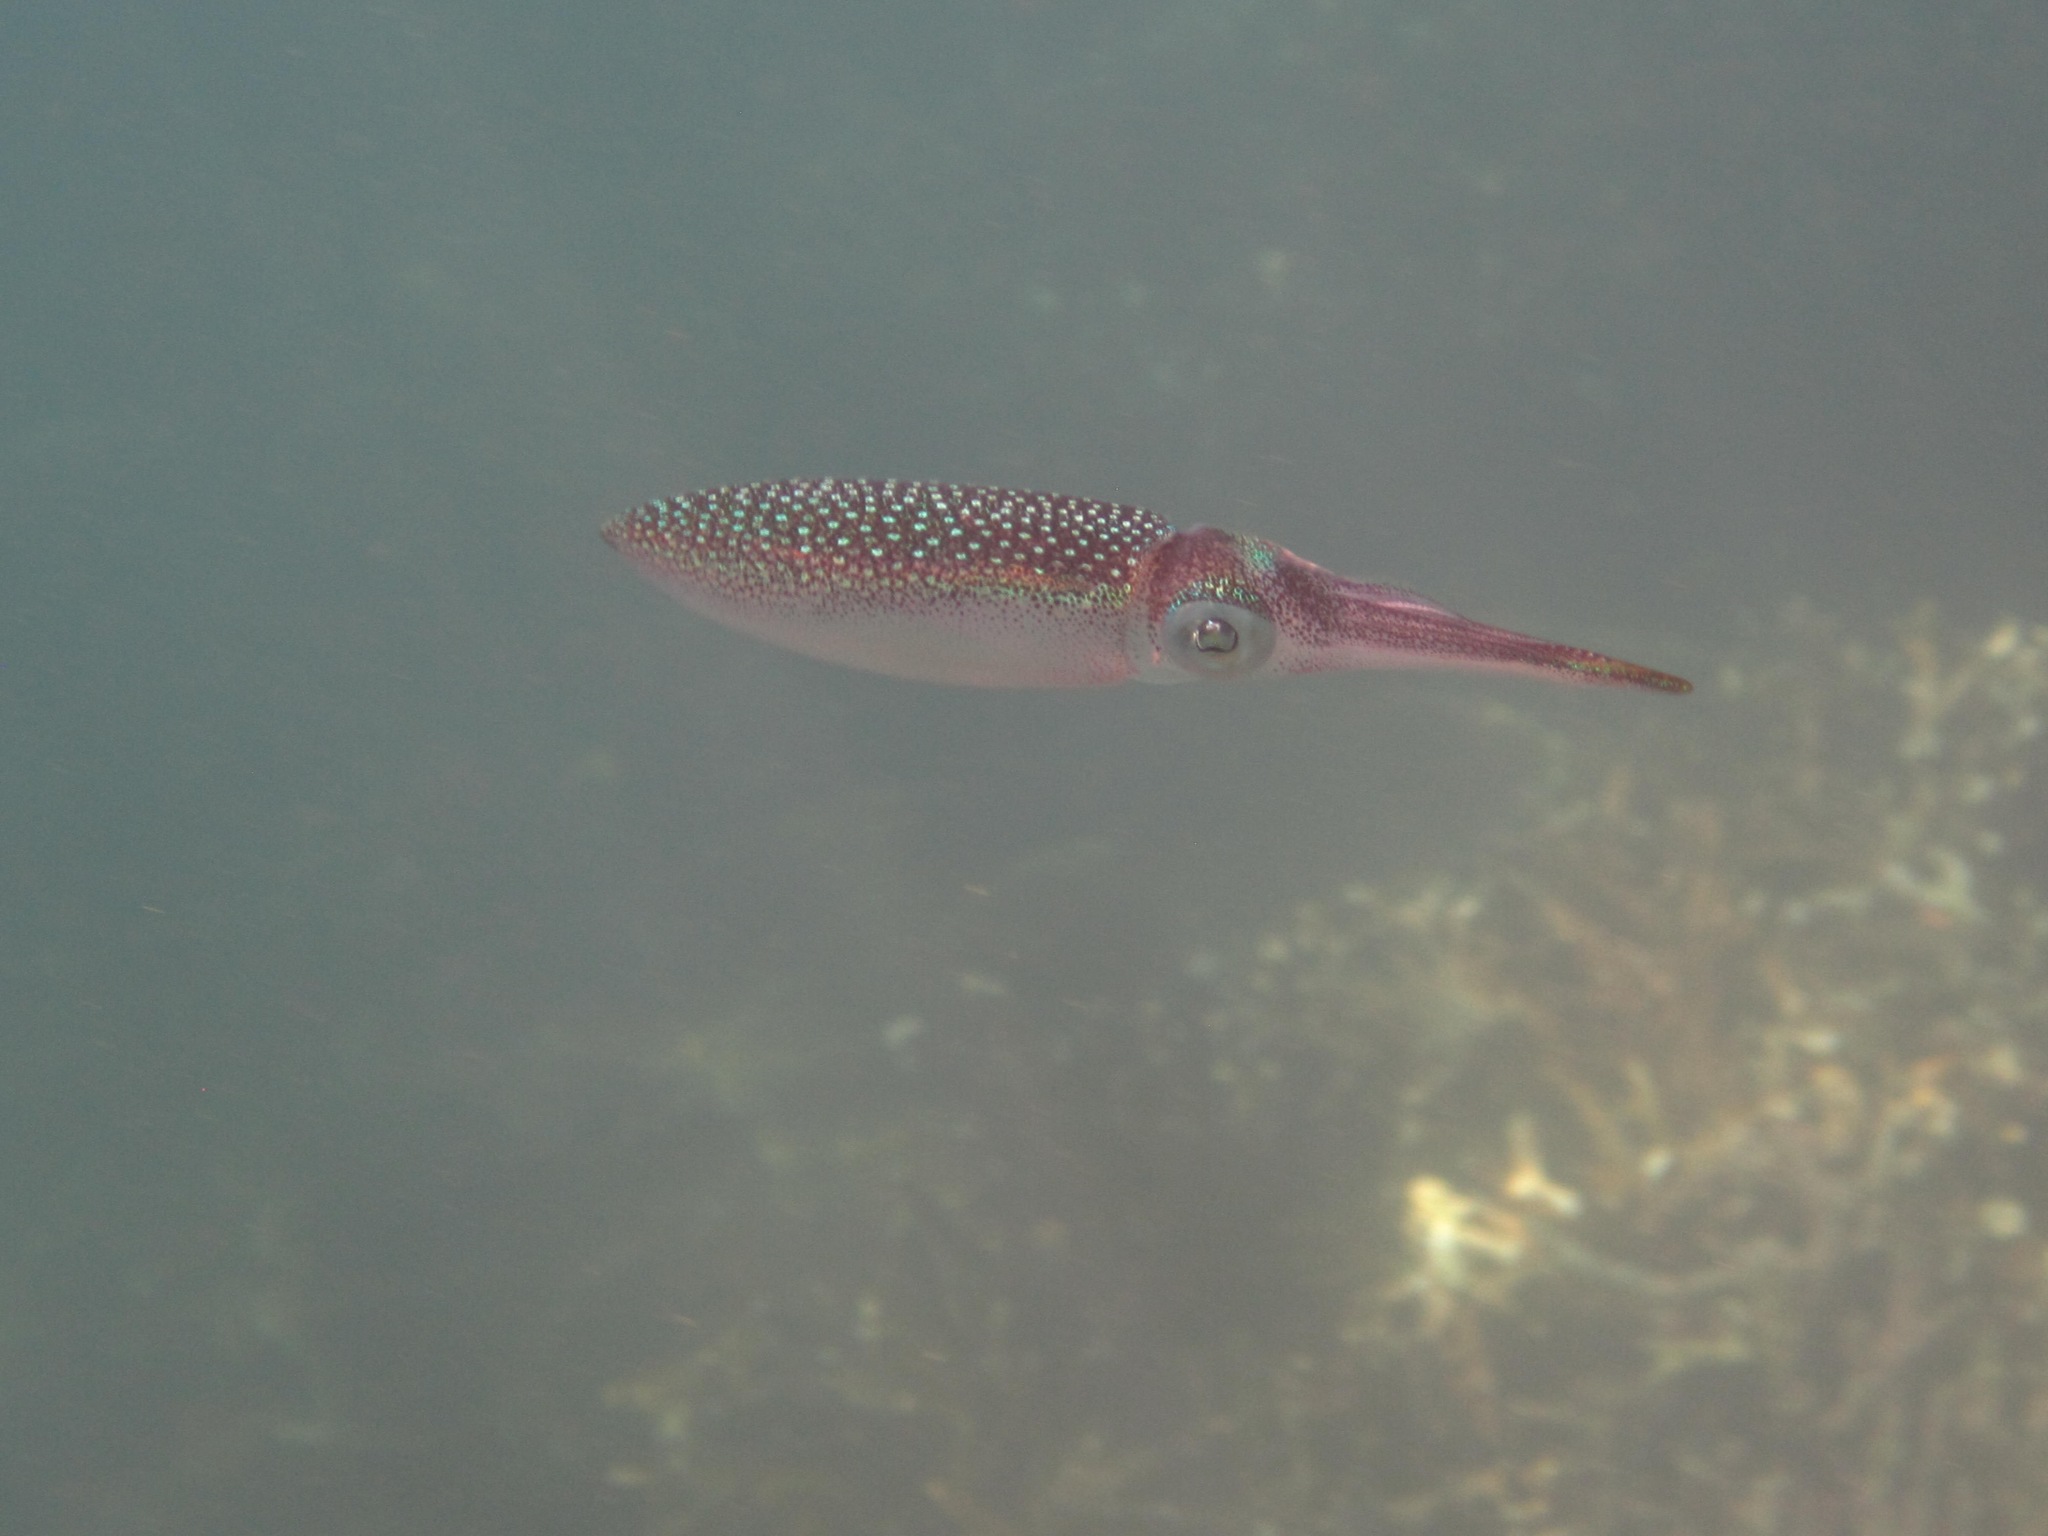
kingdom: Animalia
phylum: Mollusca
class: Cephalopoda
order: Myopsida
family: Loliginidae
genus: Sepioteuthis
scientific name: Sepioteuthis lessoniana
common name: Bigfin reef squid
